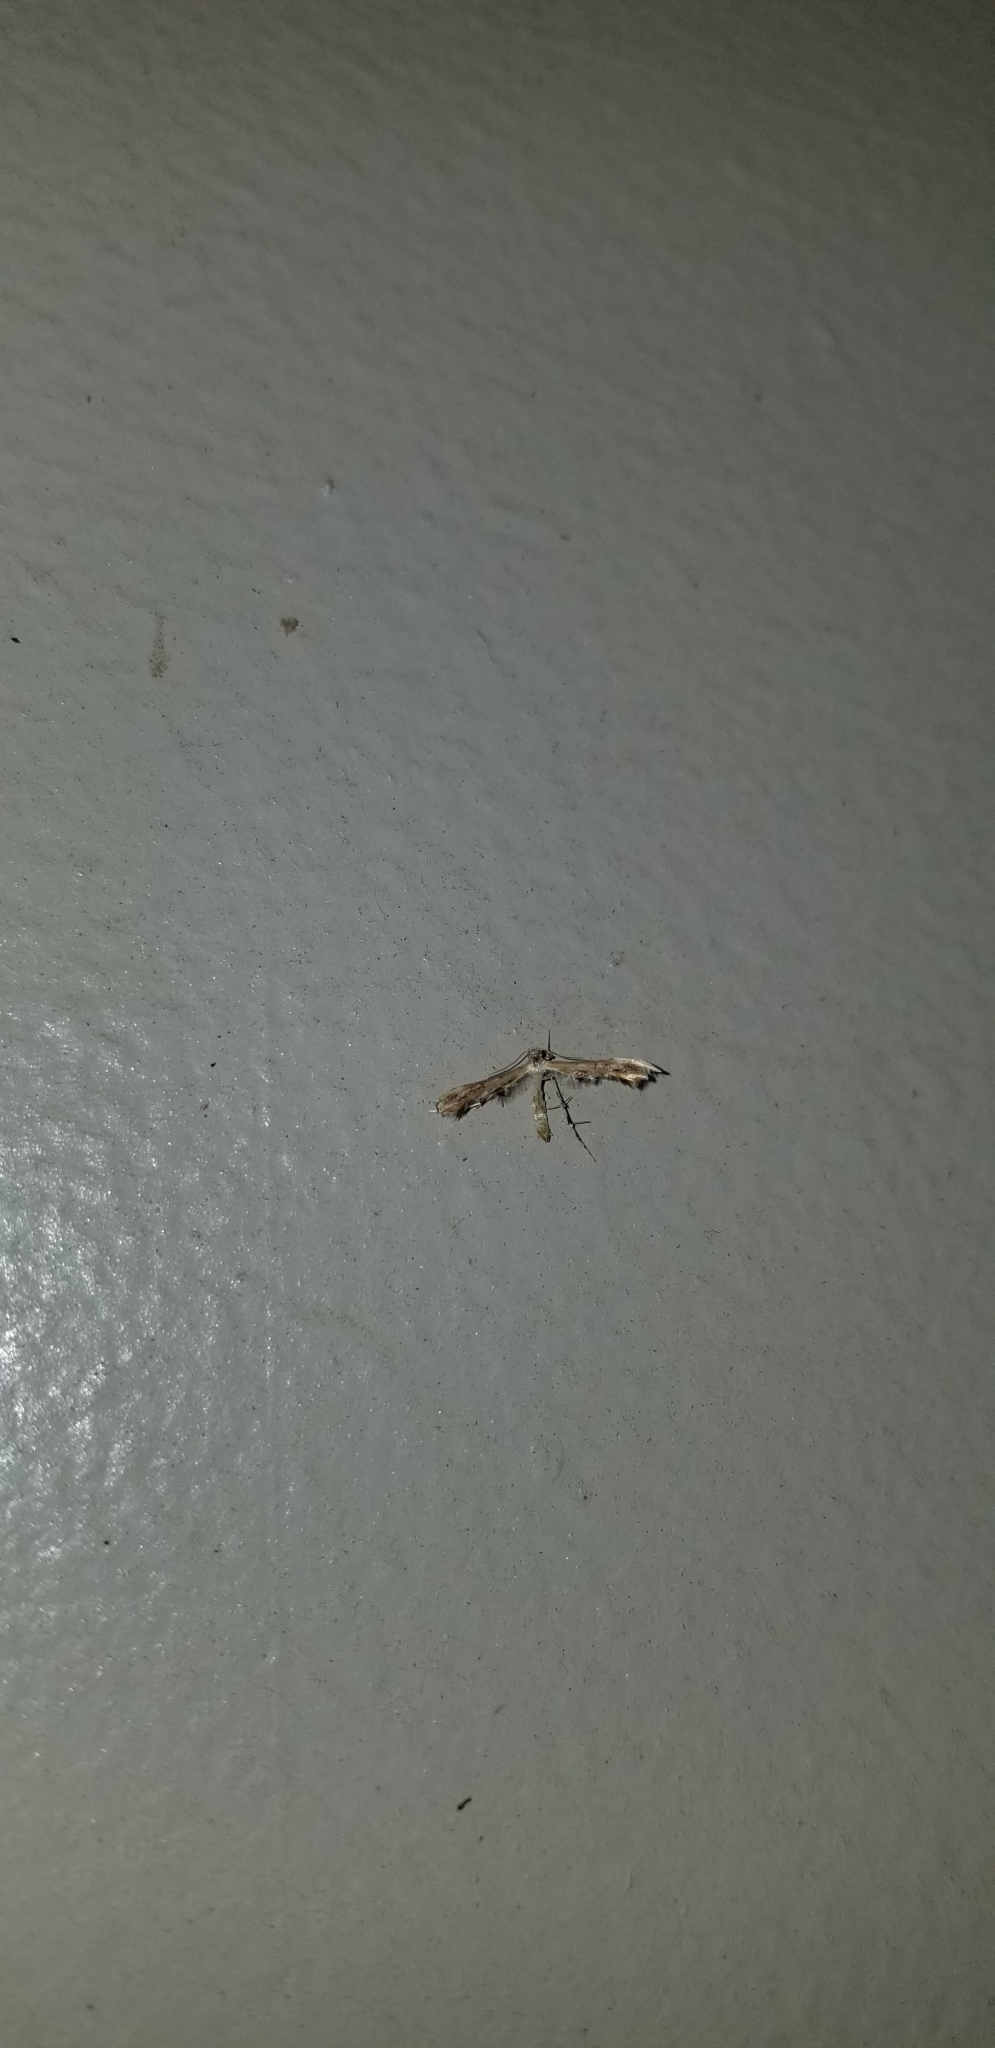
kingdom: Animalia
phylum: Arthropoda
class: Insecta
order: Lepidoptera
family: Pterophoridae
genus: Sphenarches
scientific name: Sphenarches anisodactylus
